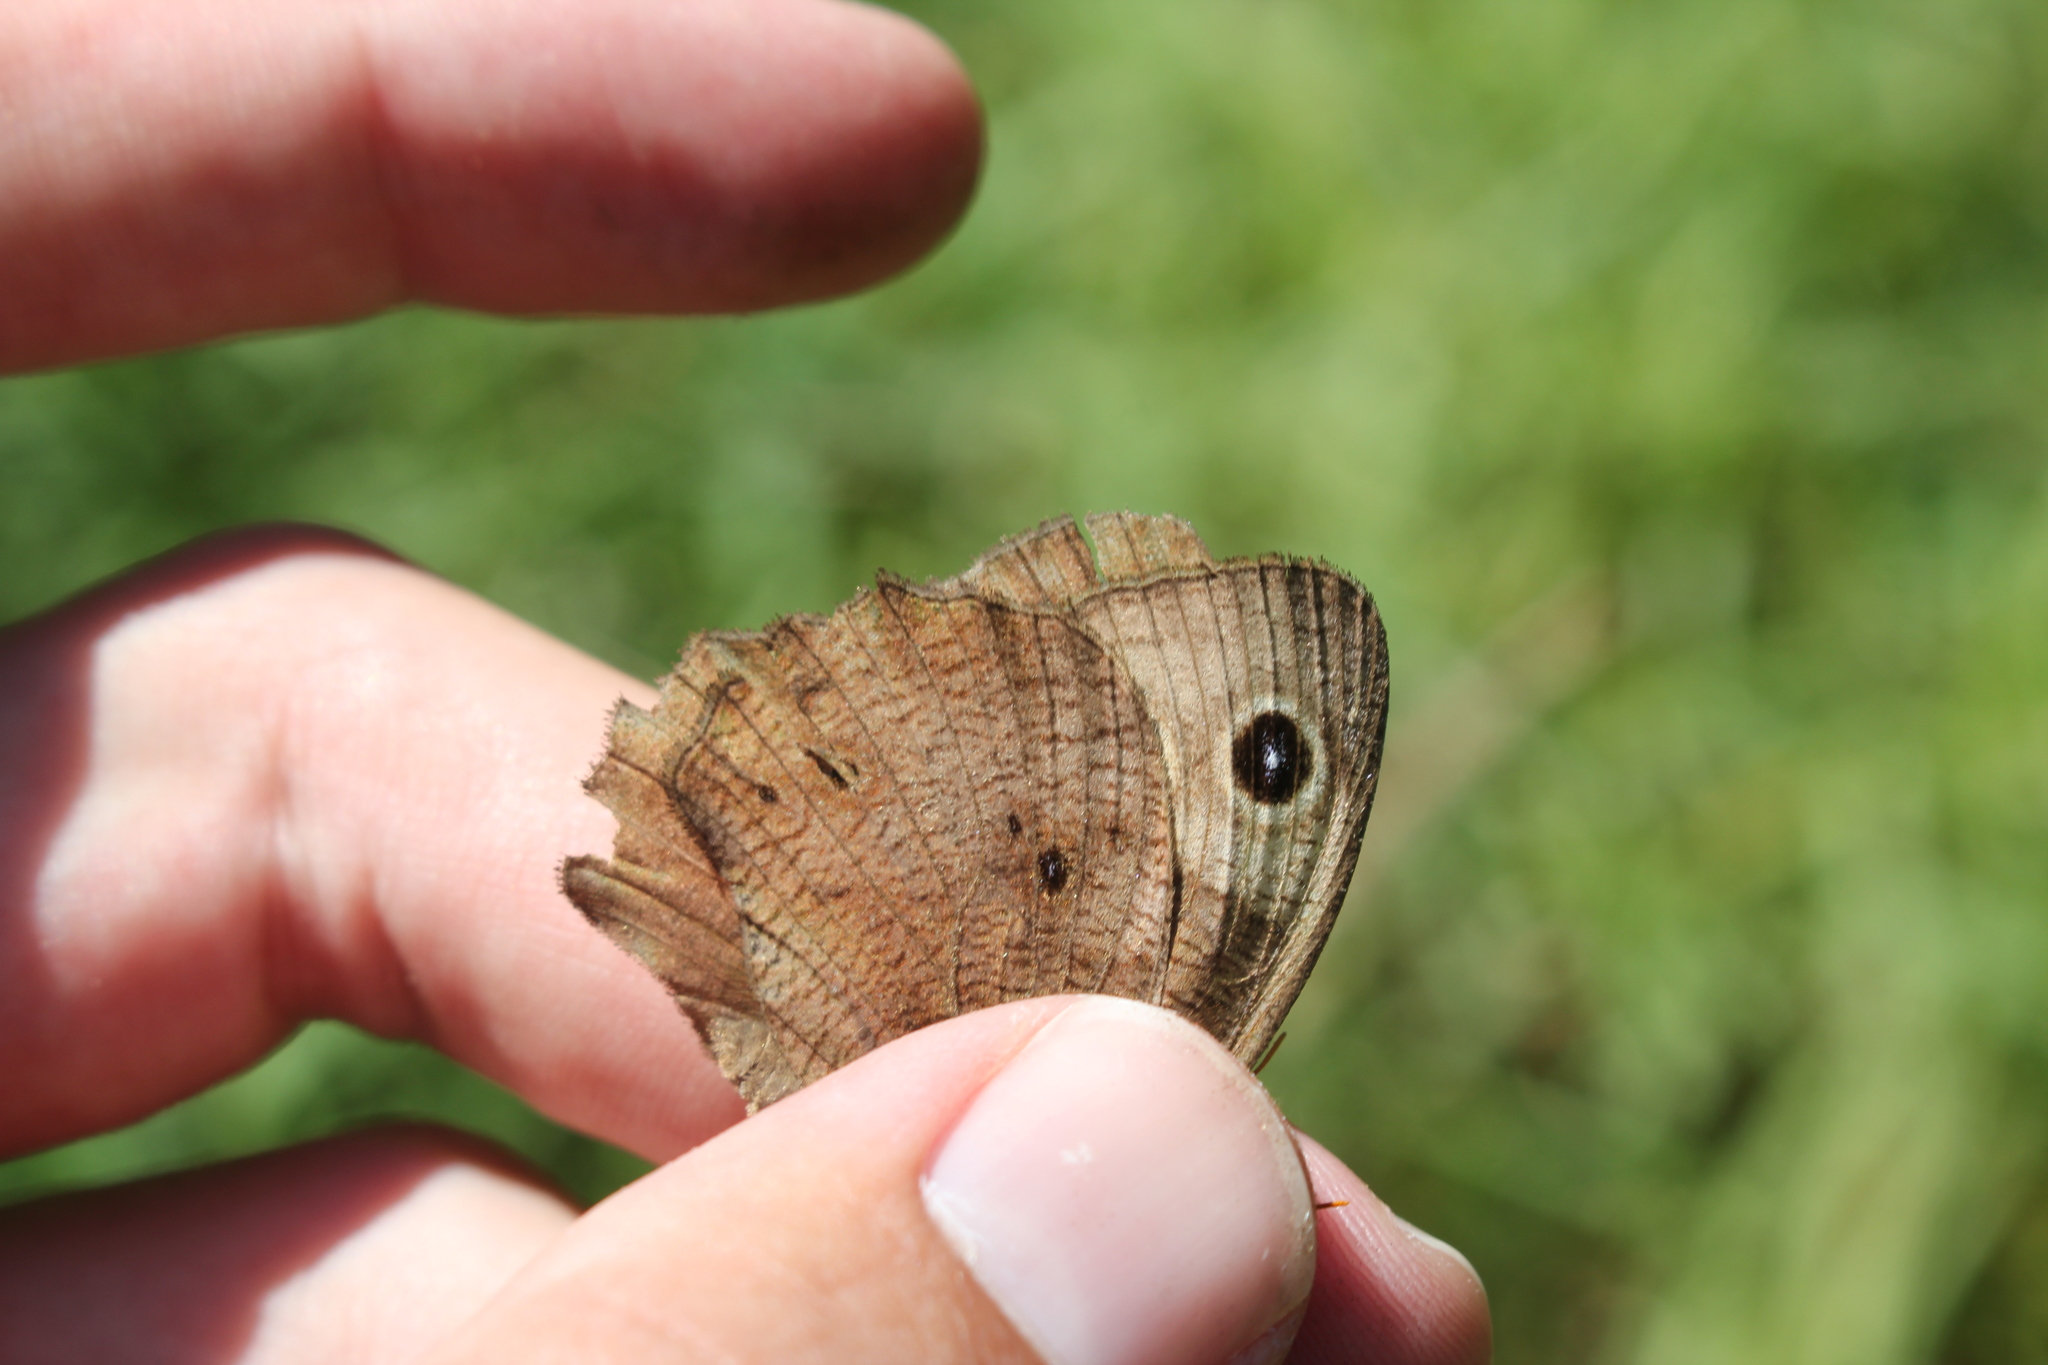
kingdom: Animalia
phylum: Arthropoda
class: Insecta
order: Lepidoptera
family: Nymphalidae
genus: Cercyonis
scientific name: Cercyonis pegala
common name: Common wood-nymph
